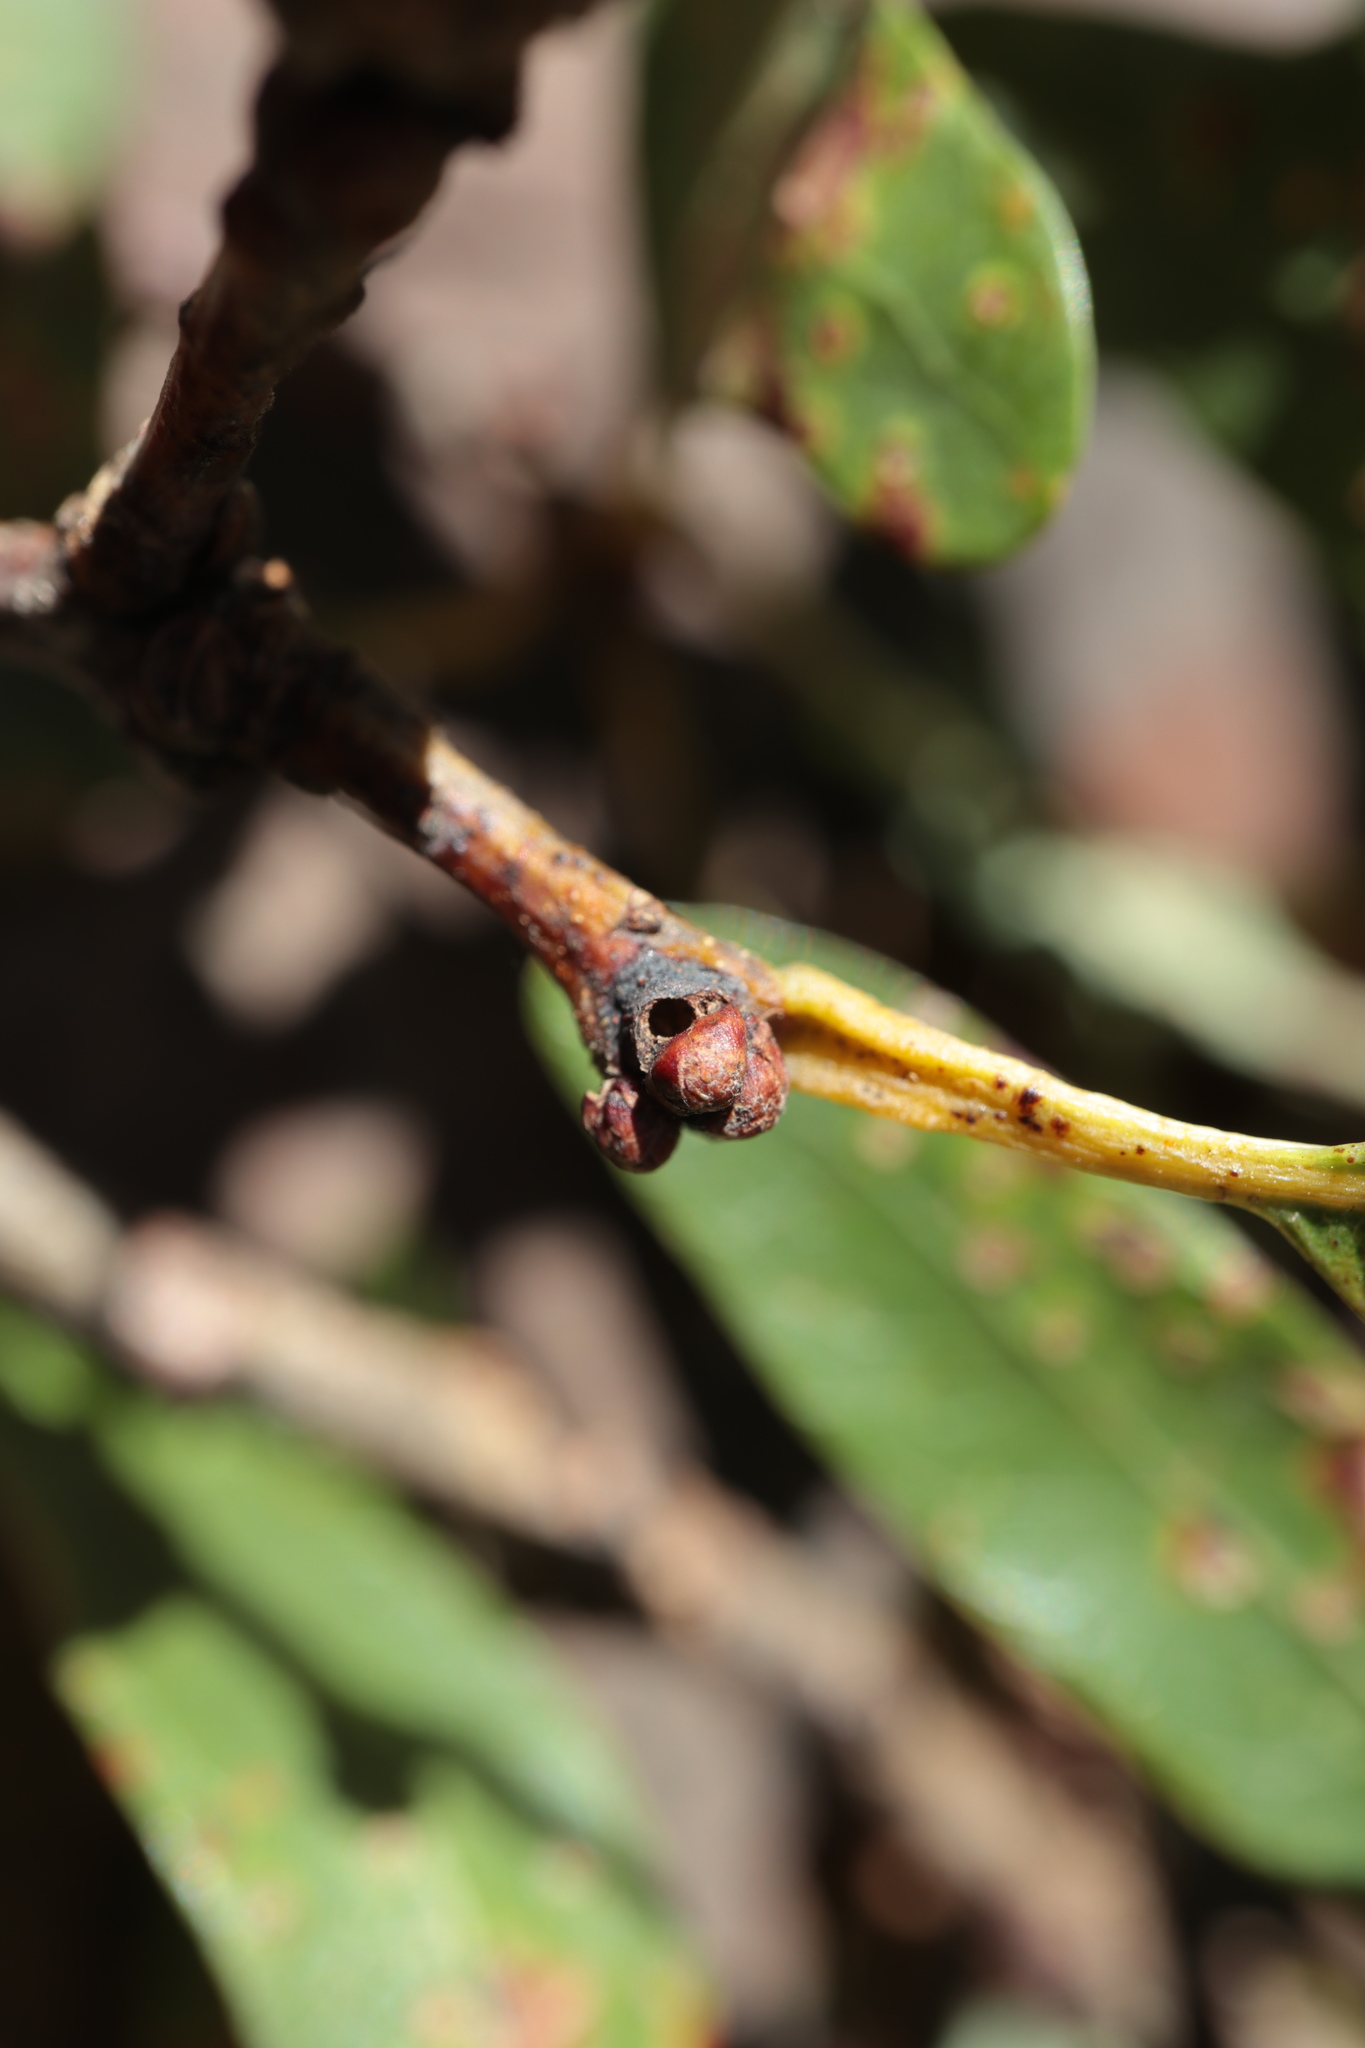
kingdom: Animalia
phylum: Arthropoda
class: Insecta
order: Hymenoptera
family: Cynipidae
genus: Neuroterus
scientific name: Neuroterus
